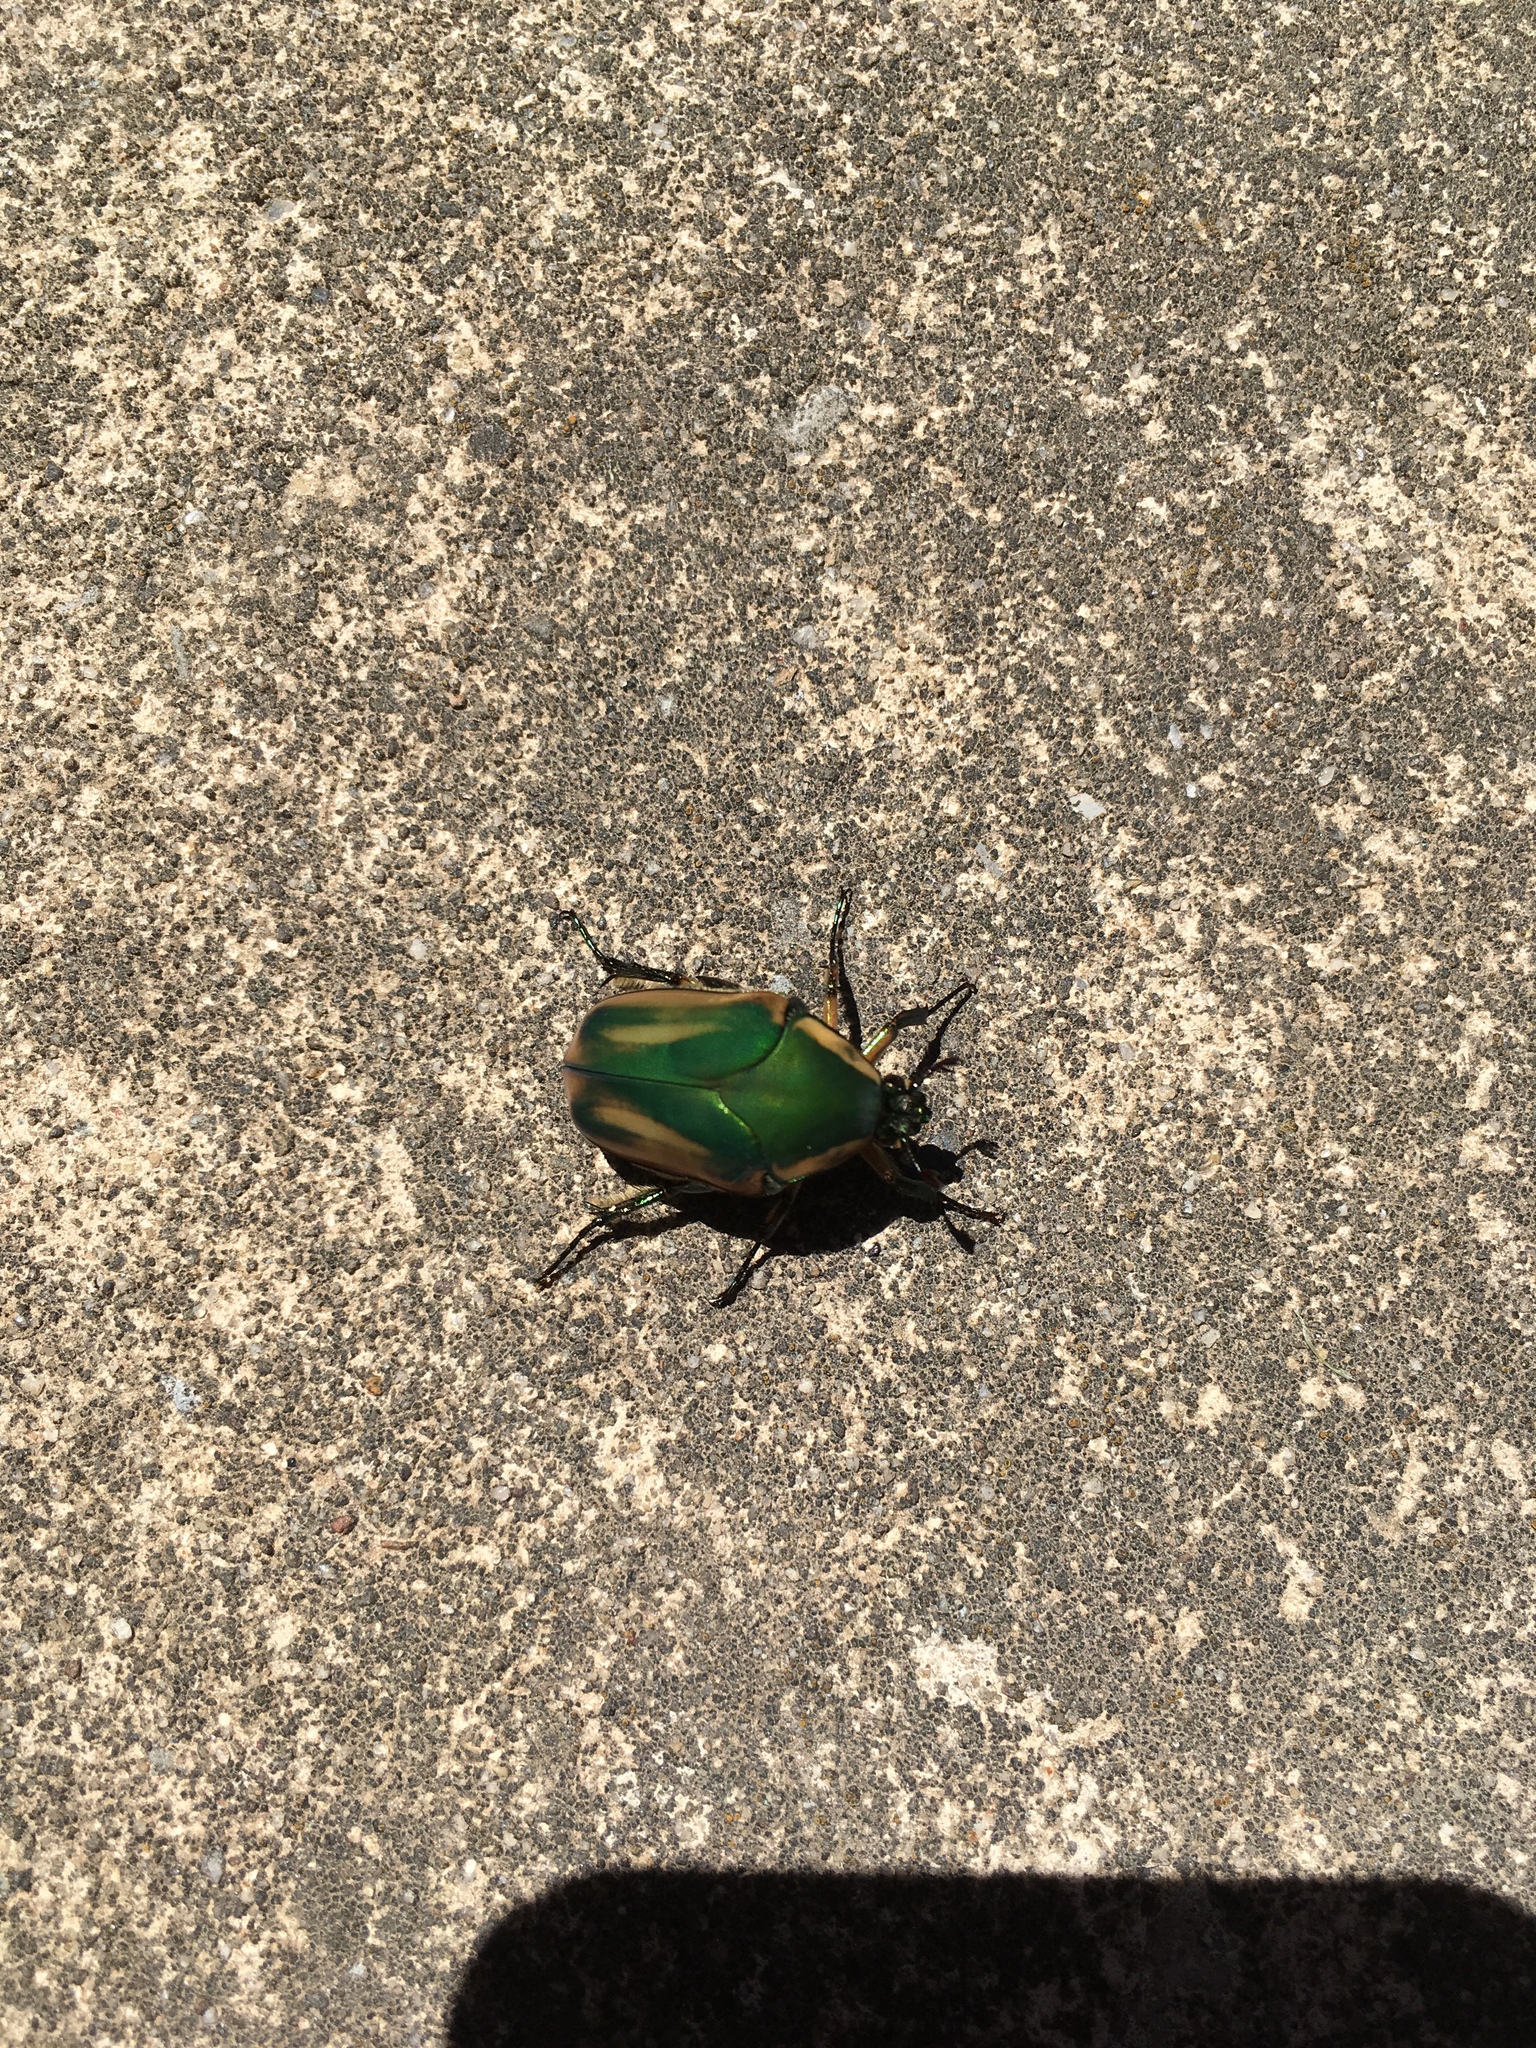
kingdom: Animalia
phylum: Arthropoda
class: Insecta
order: Coleoptera
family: Scarabaeidae
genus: Cotinis
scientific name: Cotinis nitida
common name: Common green june beetle
